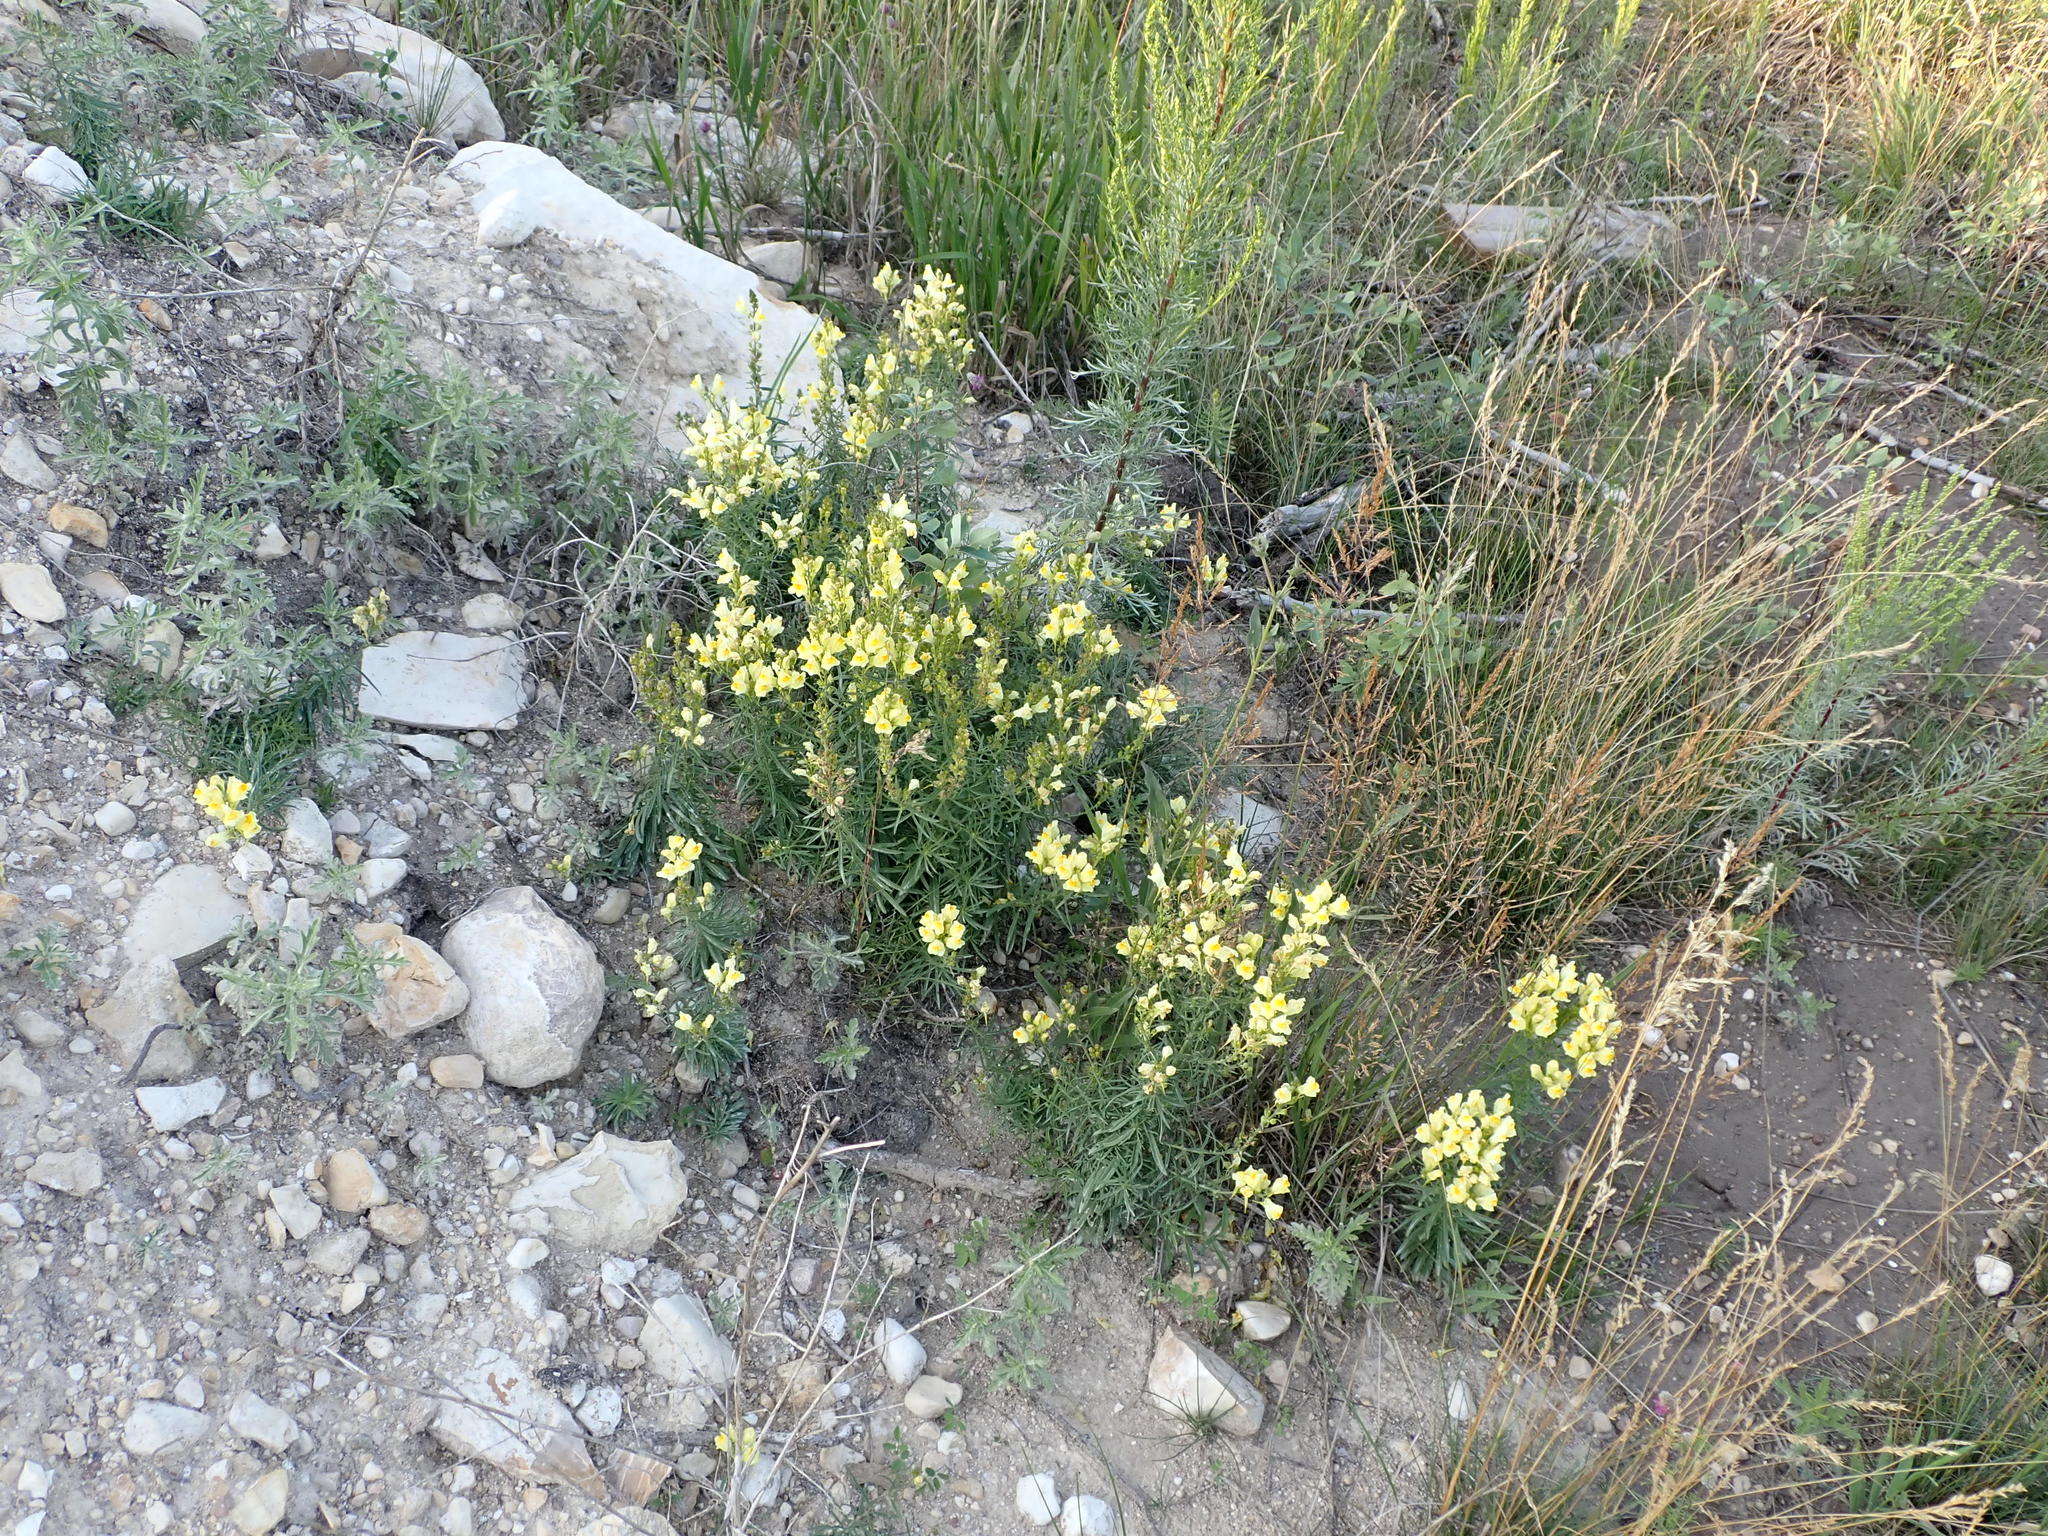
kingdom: Plantae
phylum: Tracheophyta
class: Magnoliopsida
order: Lamiales
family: Plantaginaceae
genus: Linaria
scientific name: Linaria vulgaris
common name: Butter and eggs
